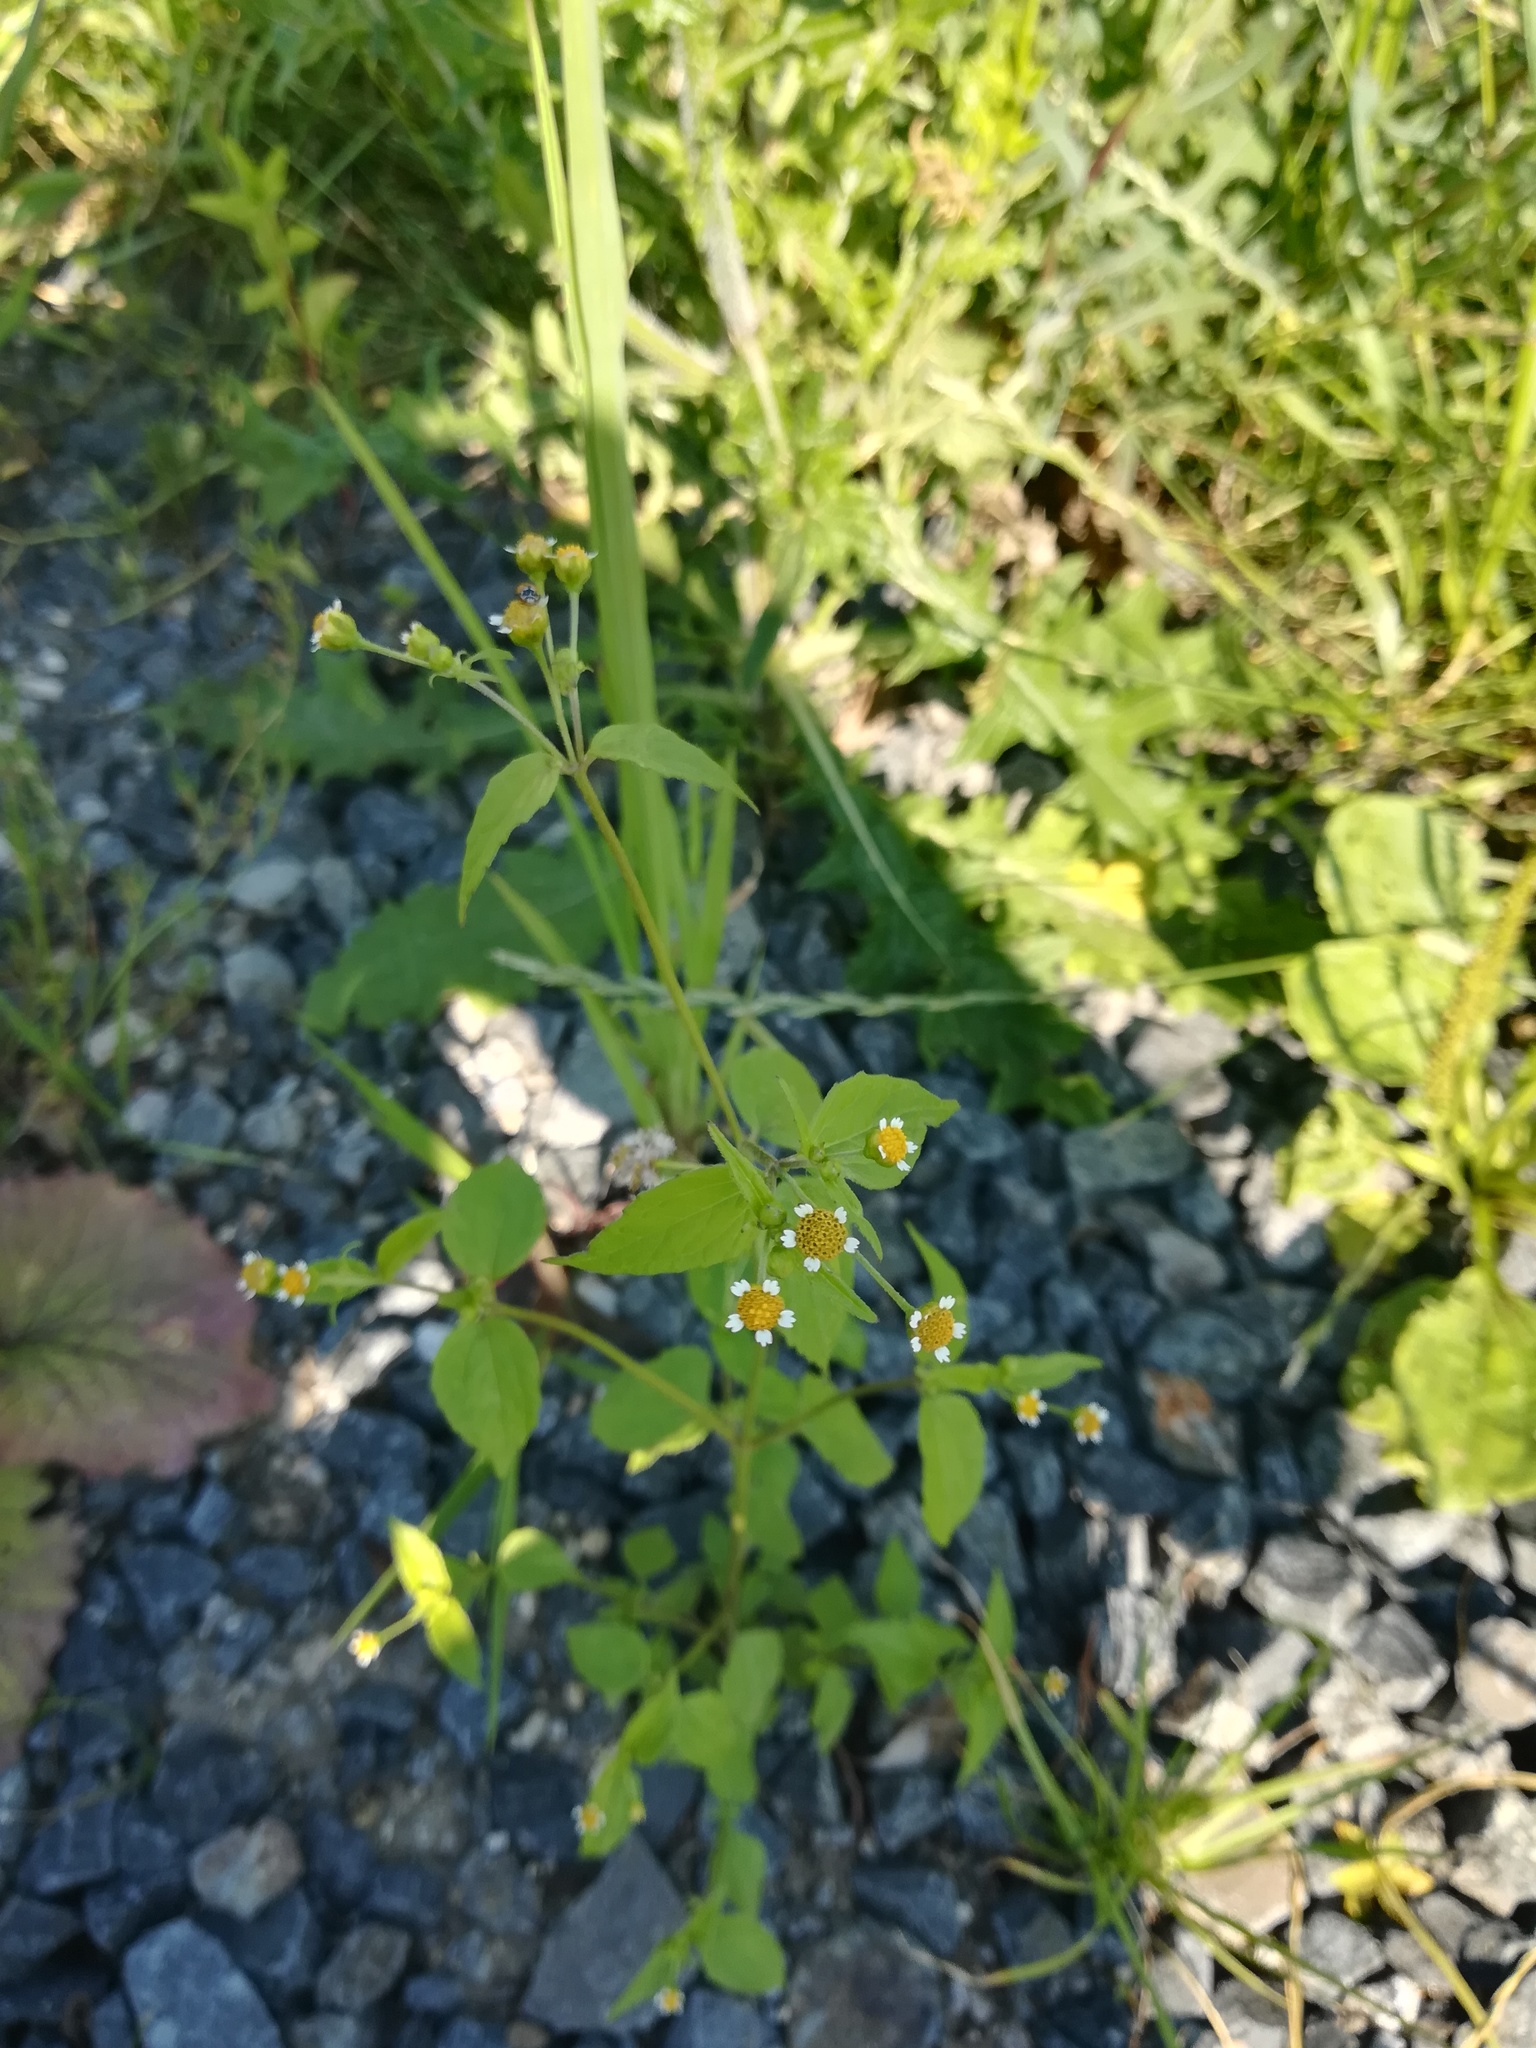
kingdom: Plantae
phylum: Tracheophyta
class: Magnoliopsida
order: Asterales
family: Asteraceae
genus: Galinsoga
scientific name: Galinsoga parviflora
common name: Gallant soldier
